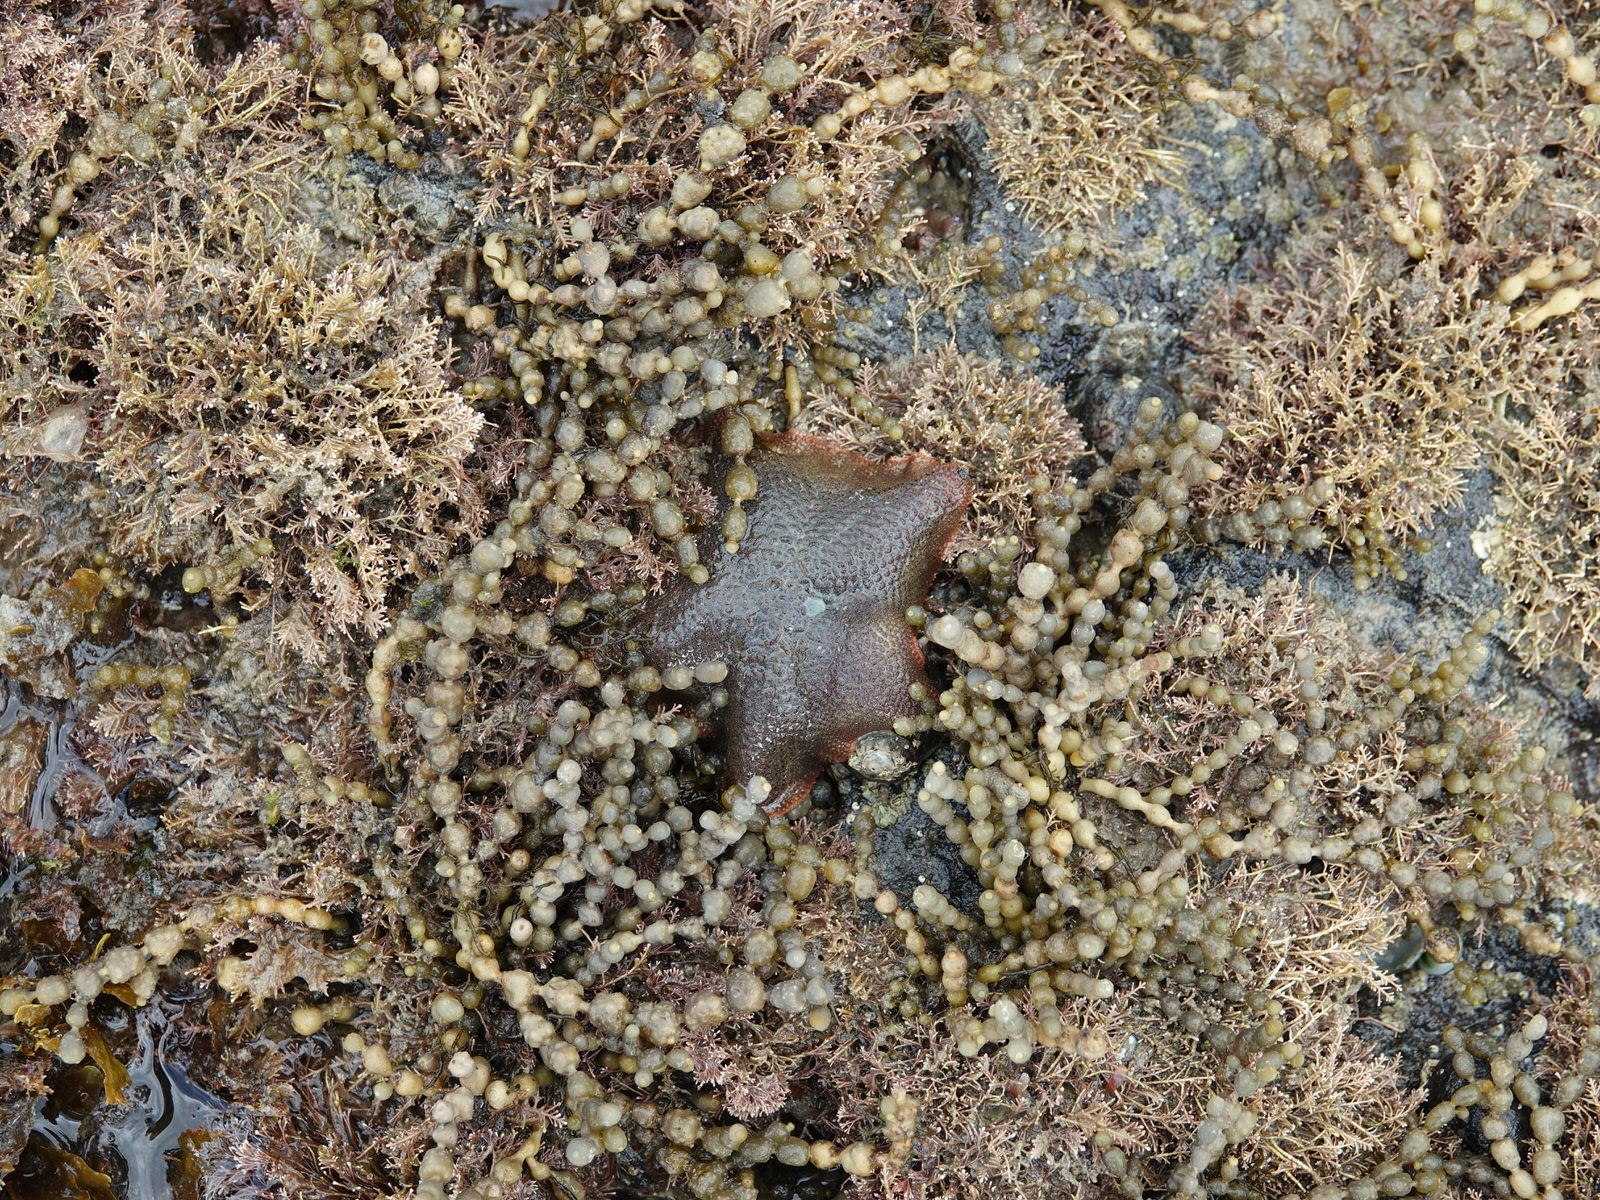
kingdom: Animalia
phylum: Echinodermata
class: Asteroidea
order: Valvatida
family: Asterinidae
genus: Patiriella
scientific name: Patiriella regularis
